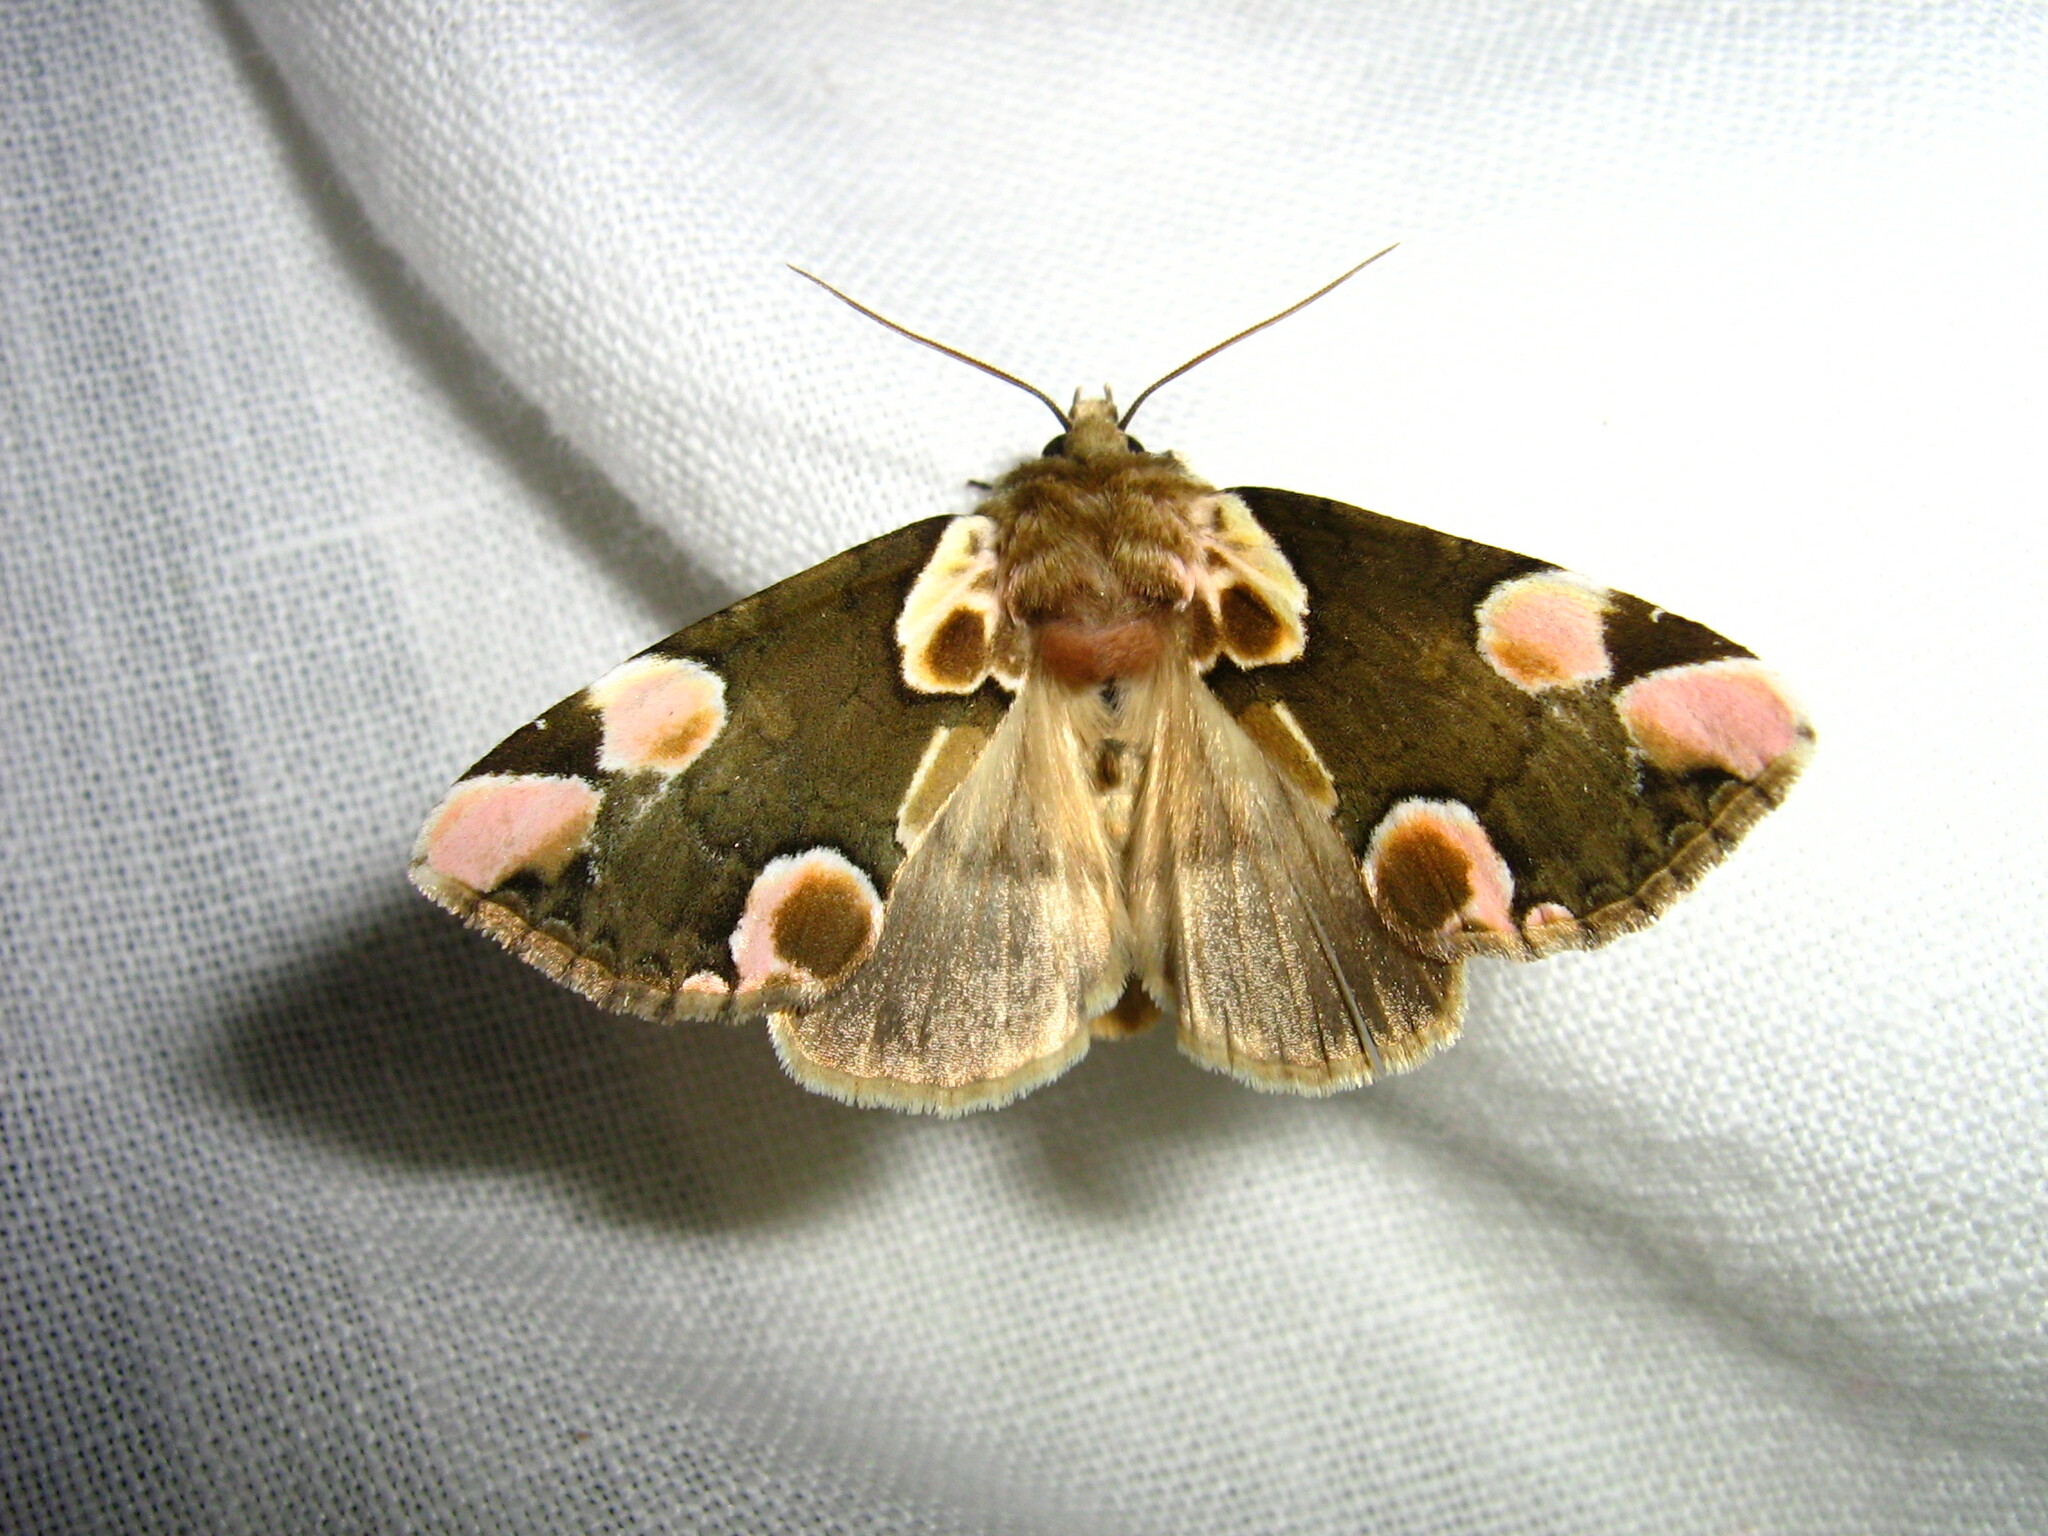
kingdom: Animalia
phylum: Arthropoda
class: Insecta
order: Lepidoptera
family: Drepanidae
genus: Thyatira
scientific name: Thyatira batis
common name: Peach blossom
